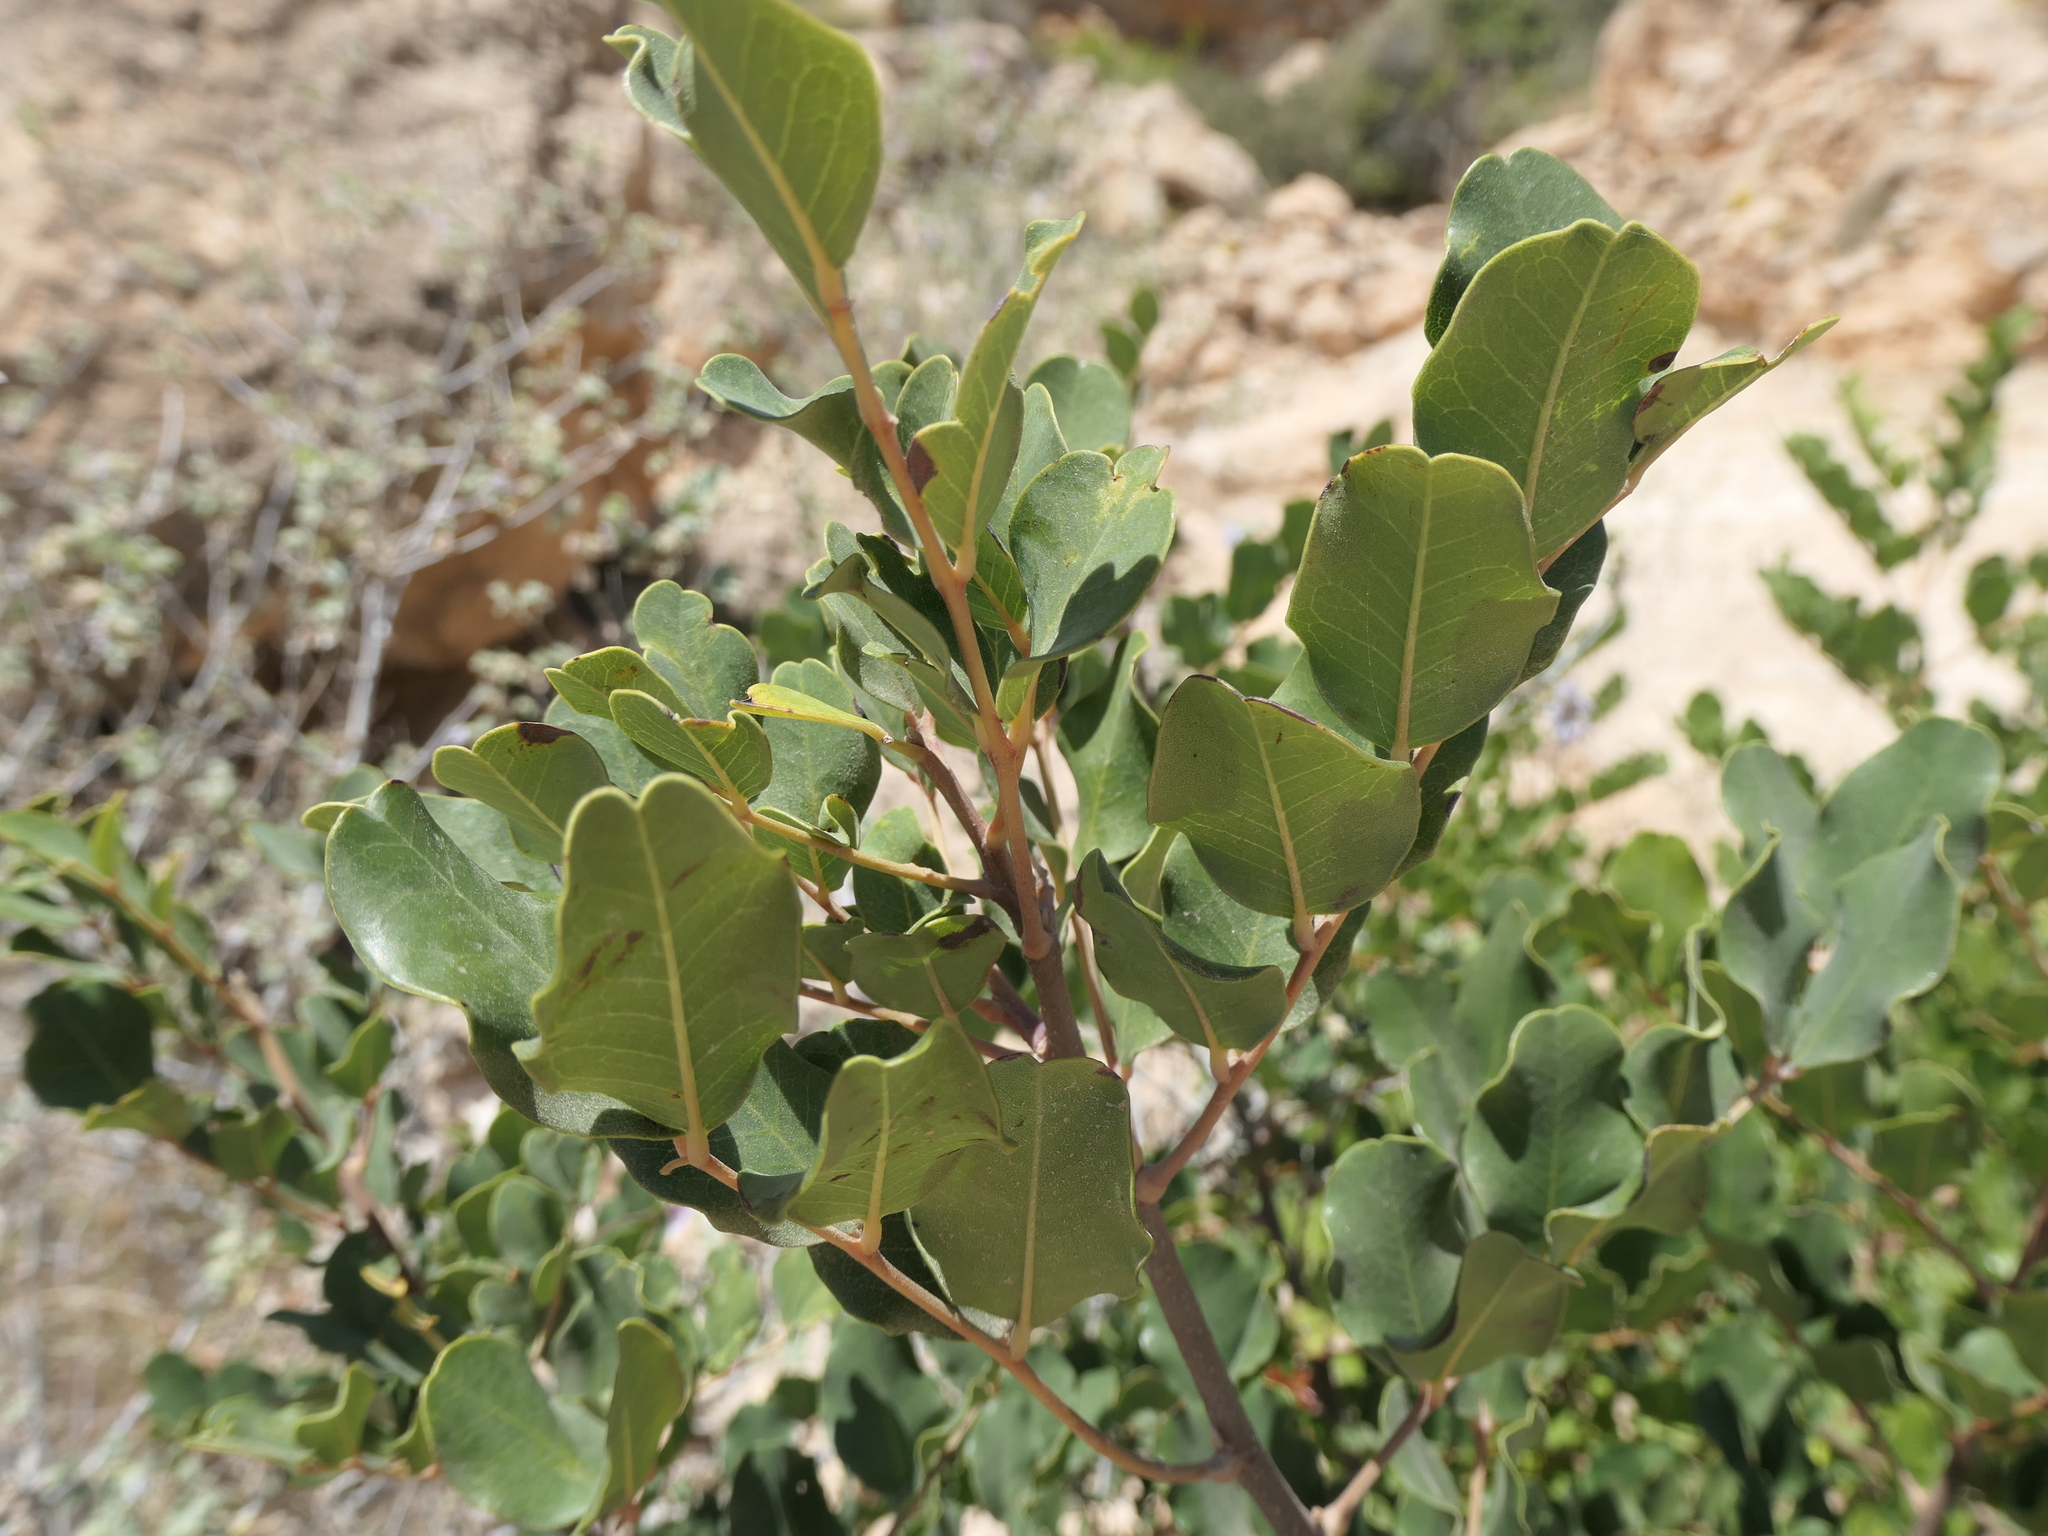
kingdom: Plantae
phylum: Tracheophyta
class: Magnoliopsida
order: Fabales
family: Fabaceae
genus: Ceratonia
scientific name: Ceratonia siliqua
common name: Carob
